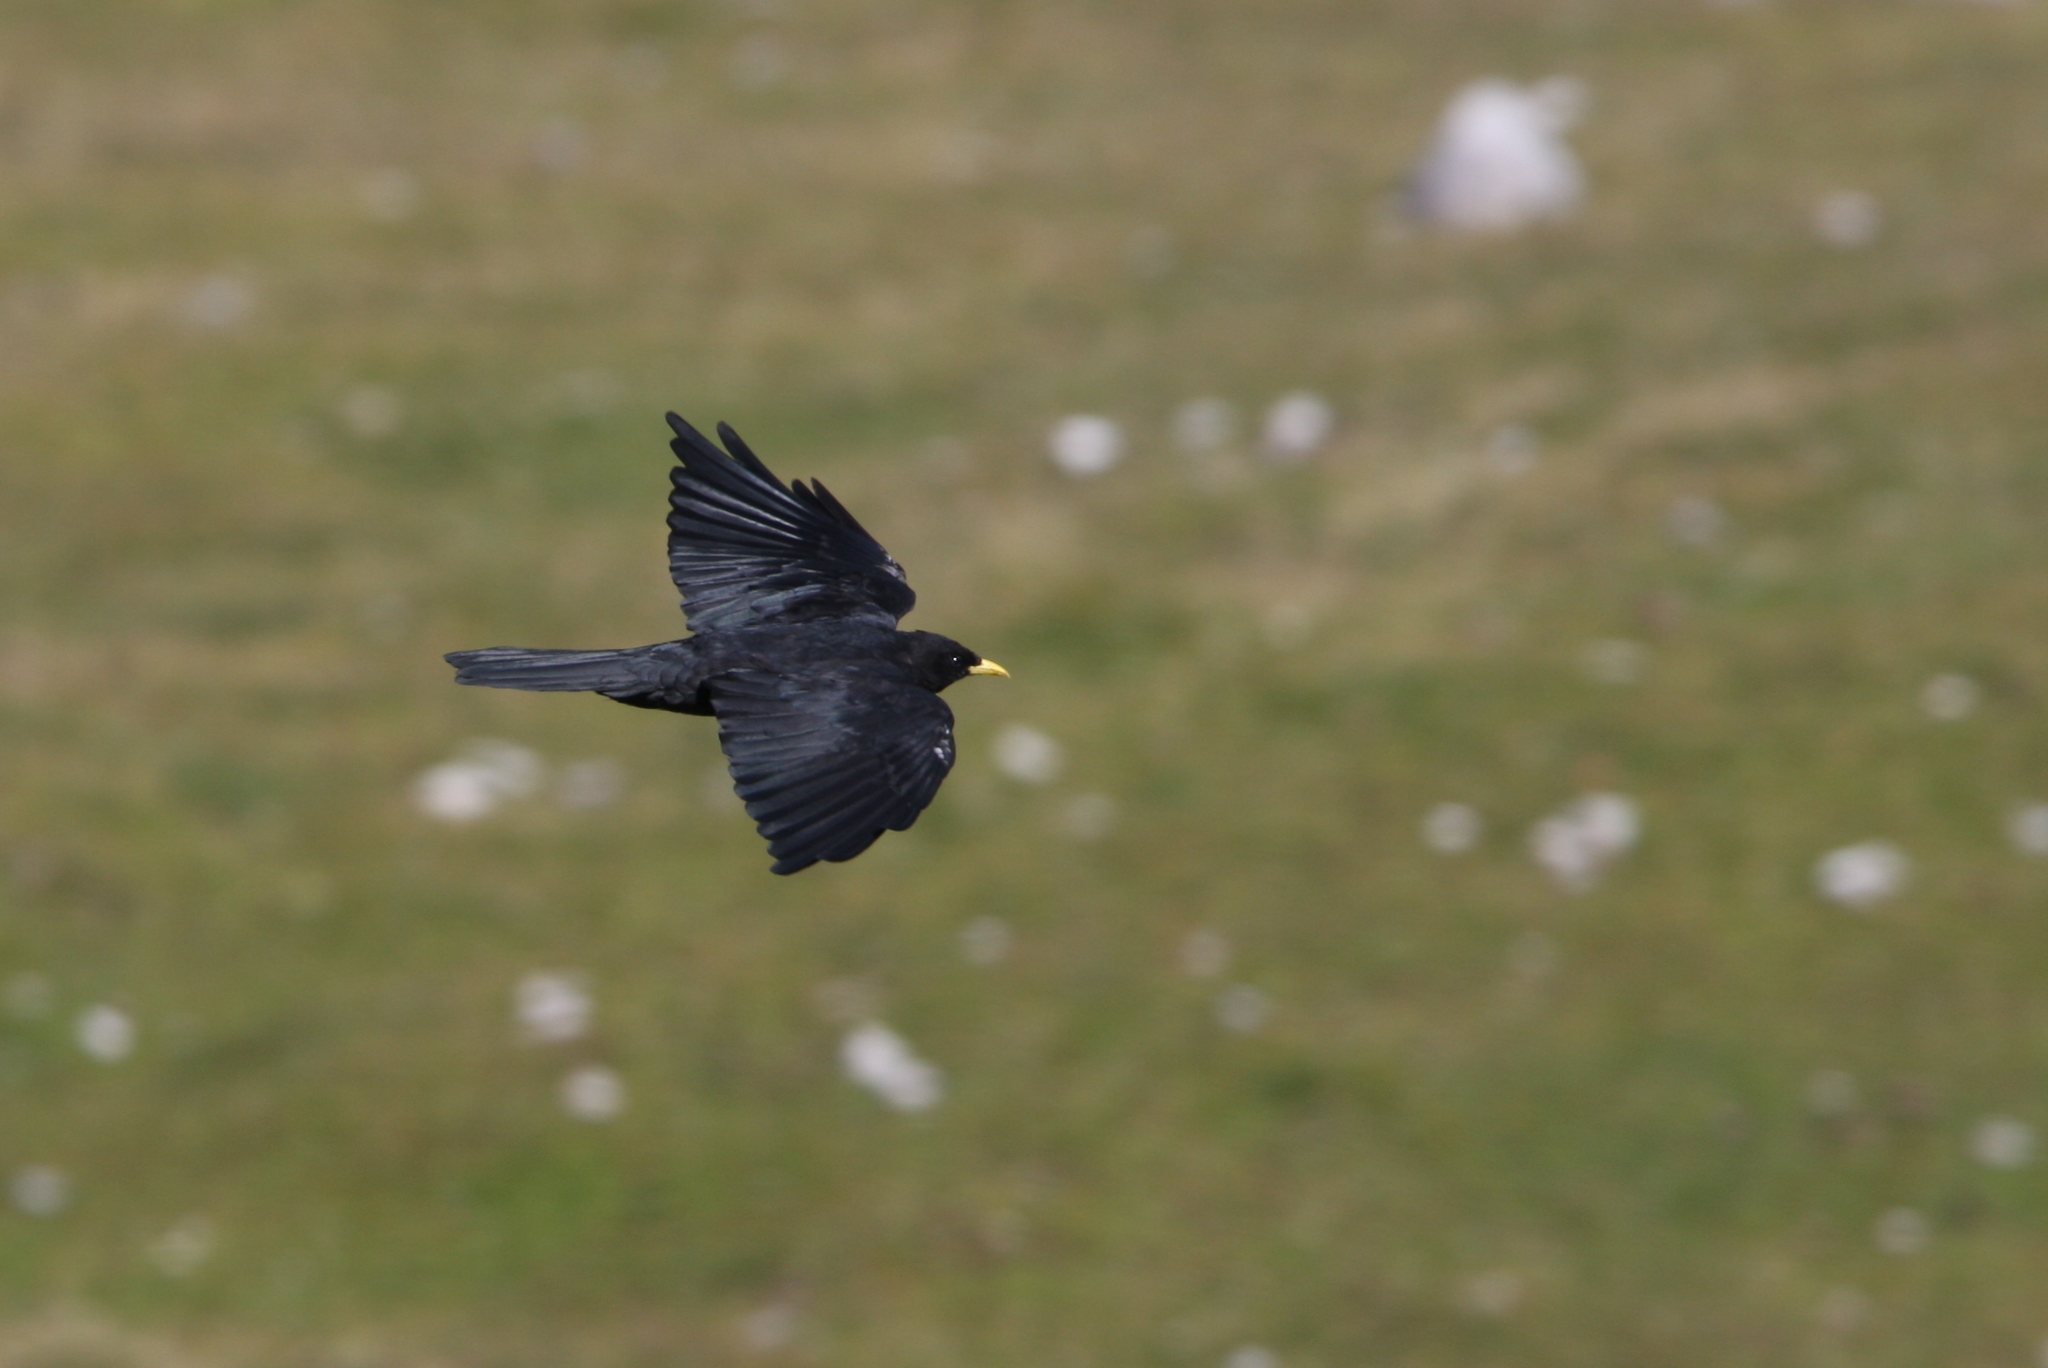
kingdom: Animalia
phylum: Chordata
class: Aves
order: Passeriformes
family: Corvidae
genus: Pyrrhocorax
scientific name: Pyrrhocorax graculus
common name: Alpine chough
